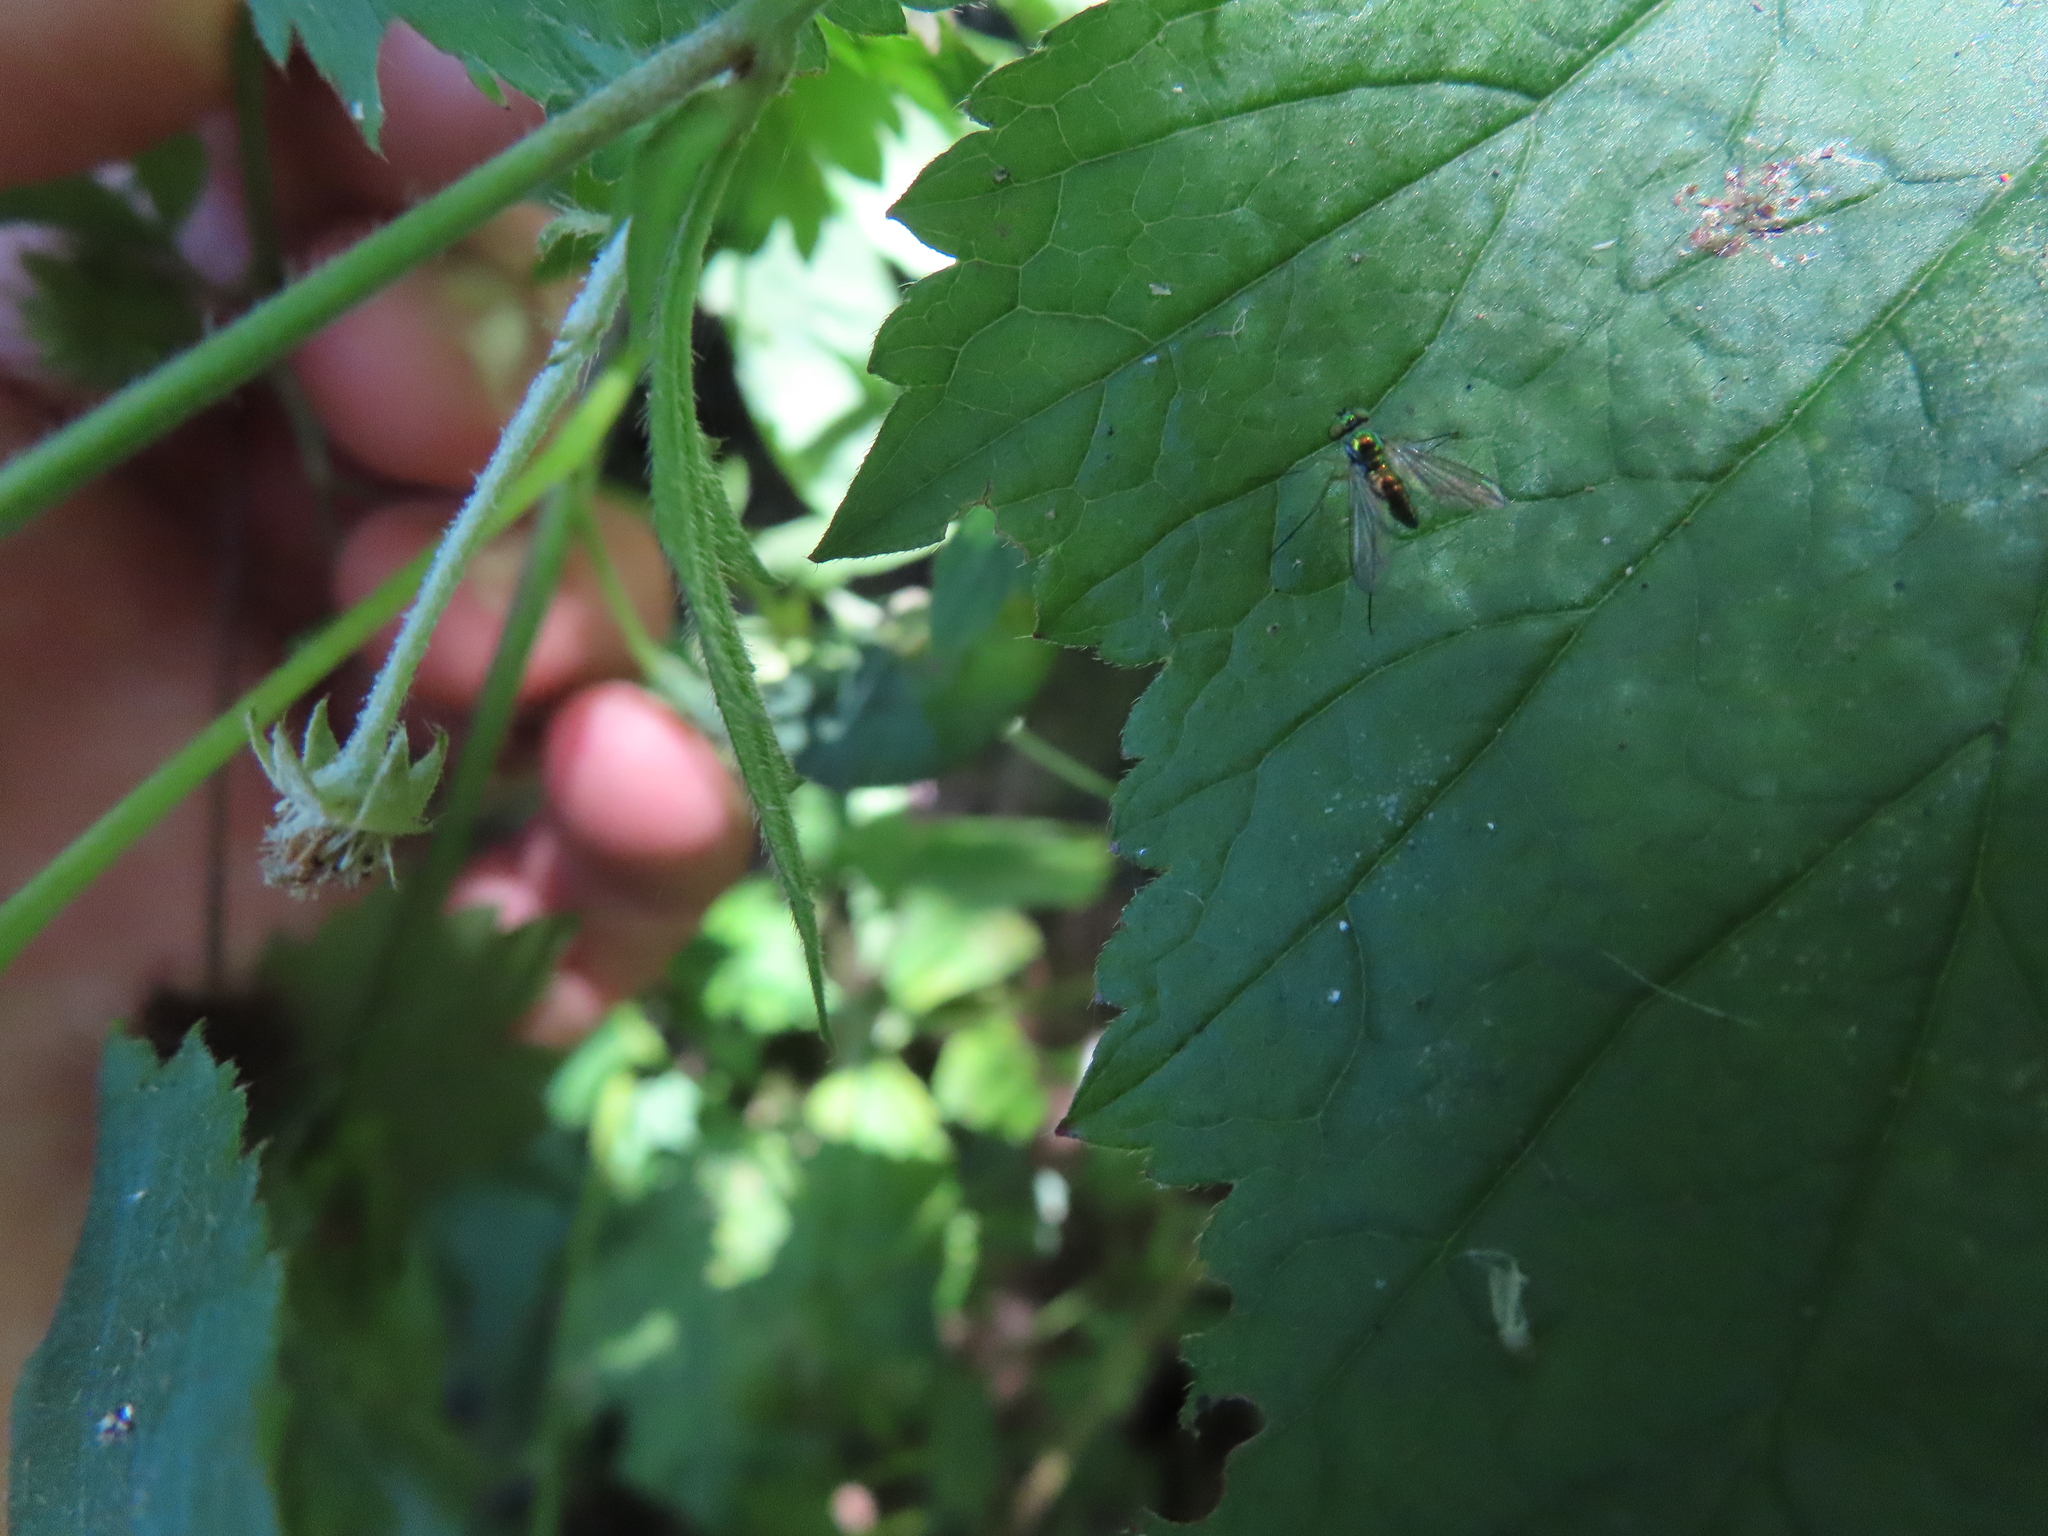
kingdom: Animalia
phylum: Arthropoda
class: Insecta
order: Diptera
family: Dolichopodidae
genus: Amblypsilopus
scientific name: Amblypsilopus scintillans
